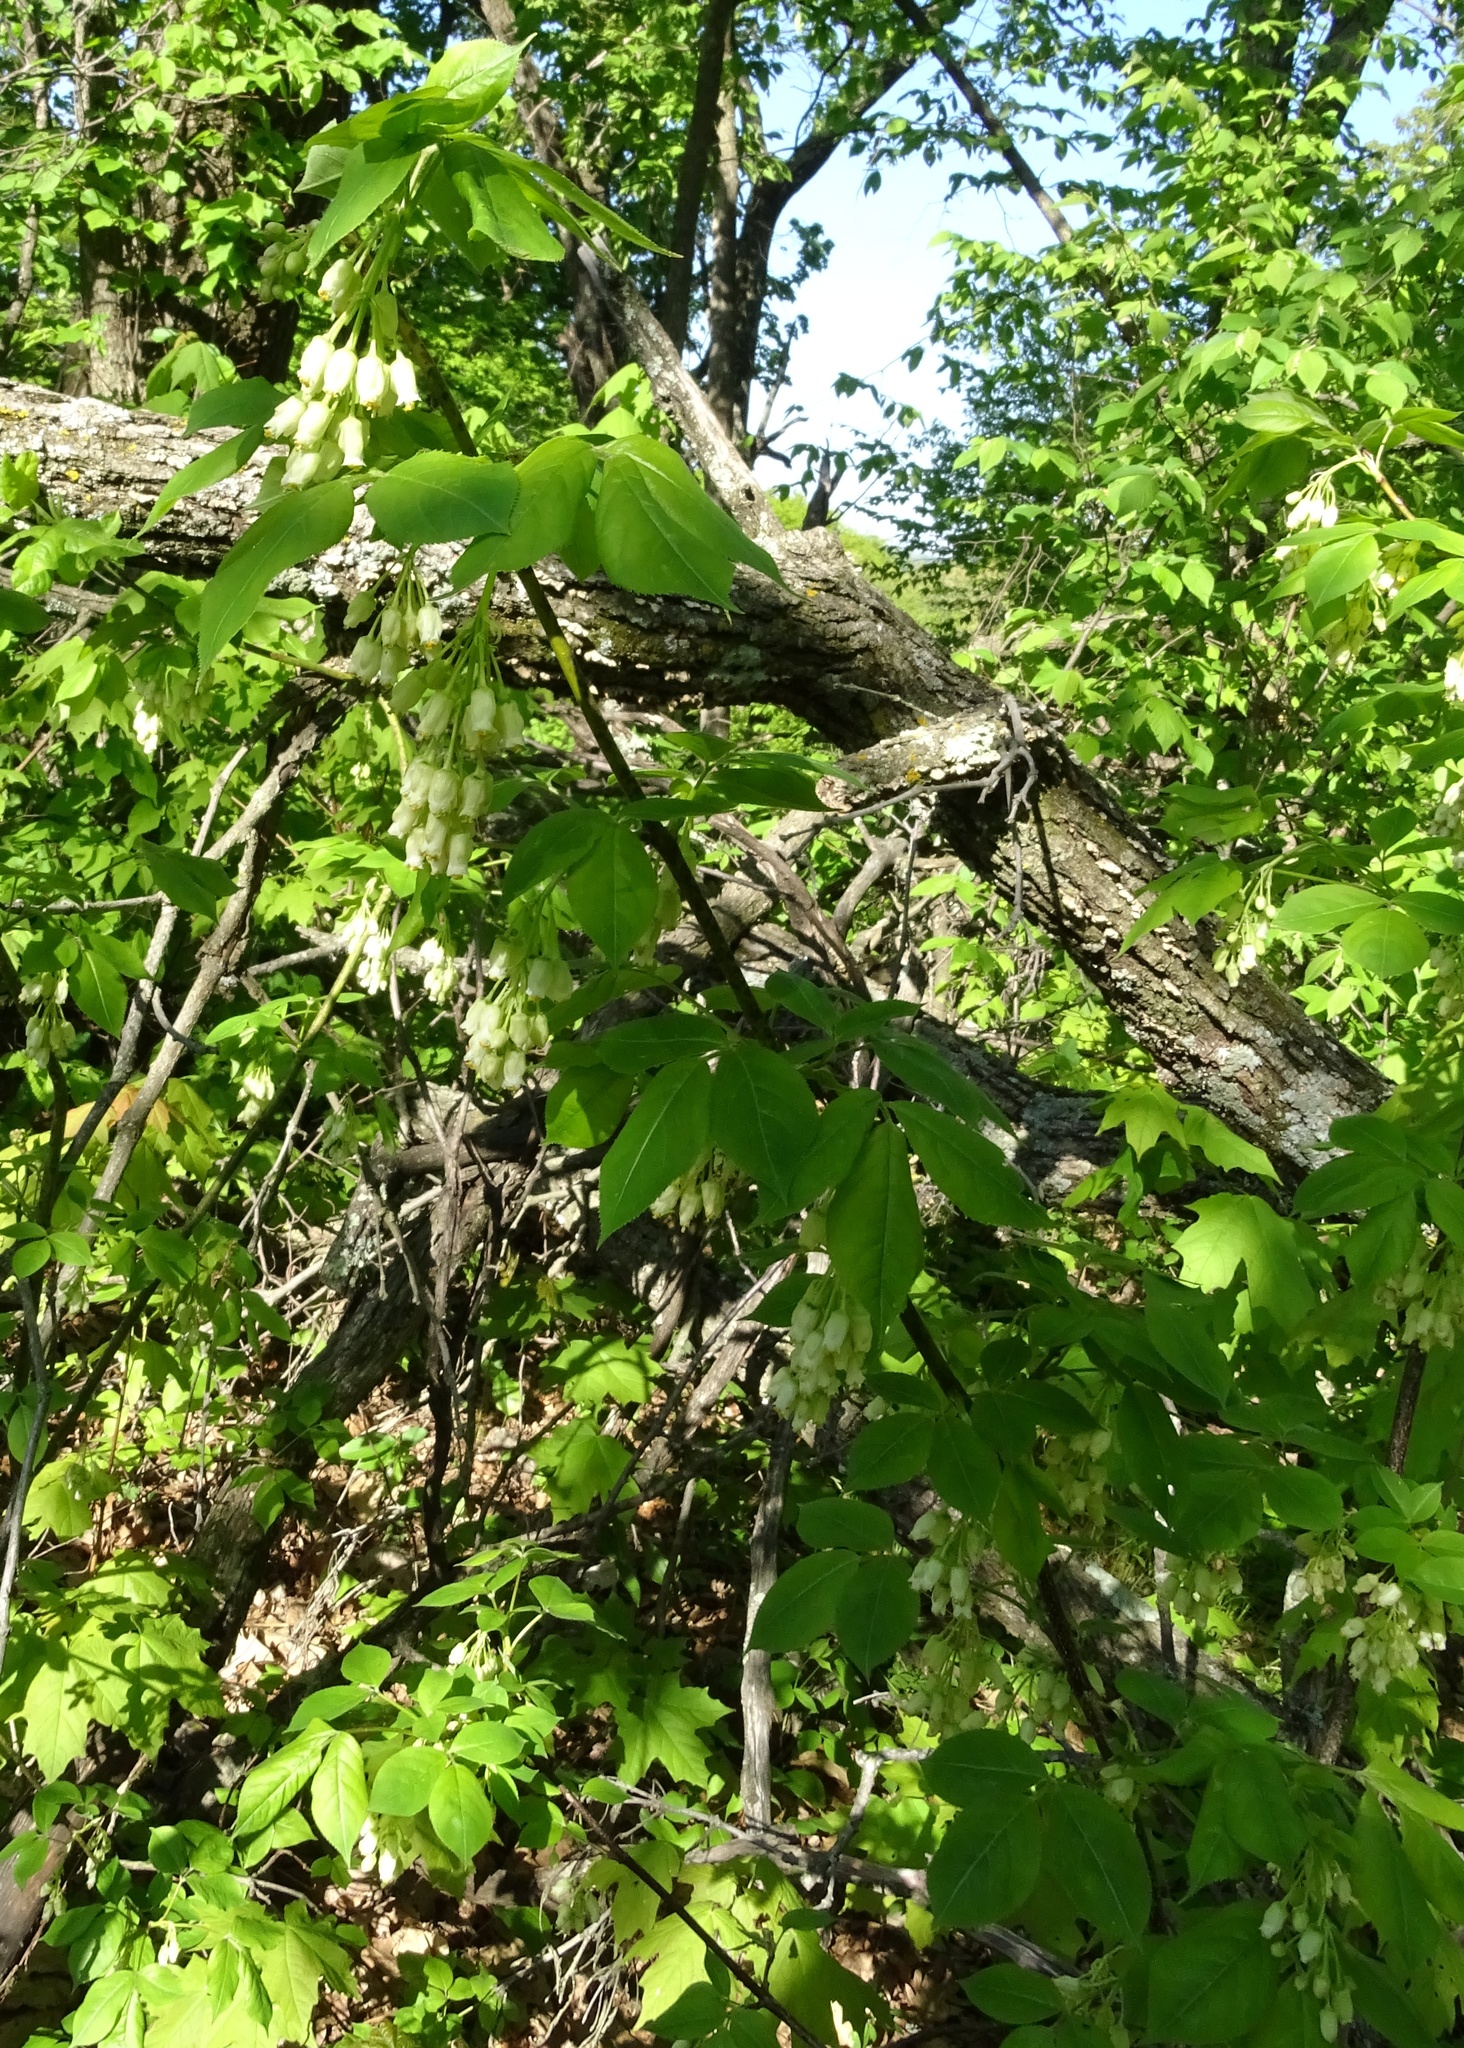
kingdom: Plantae
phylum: Tracheophyta
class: Magnoliopsida
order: Crossosomatales
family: Staphyleaceae
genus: Staphylea
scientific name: Staphylea trifolia
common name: American bladdernut
